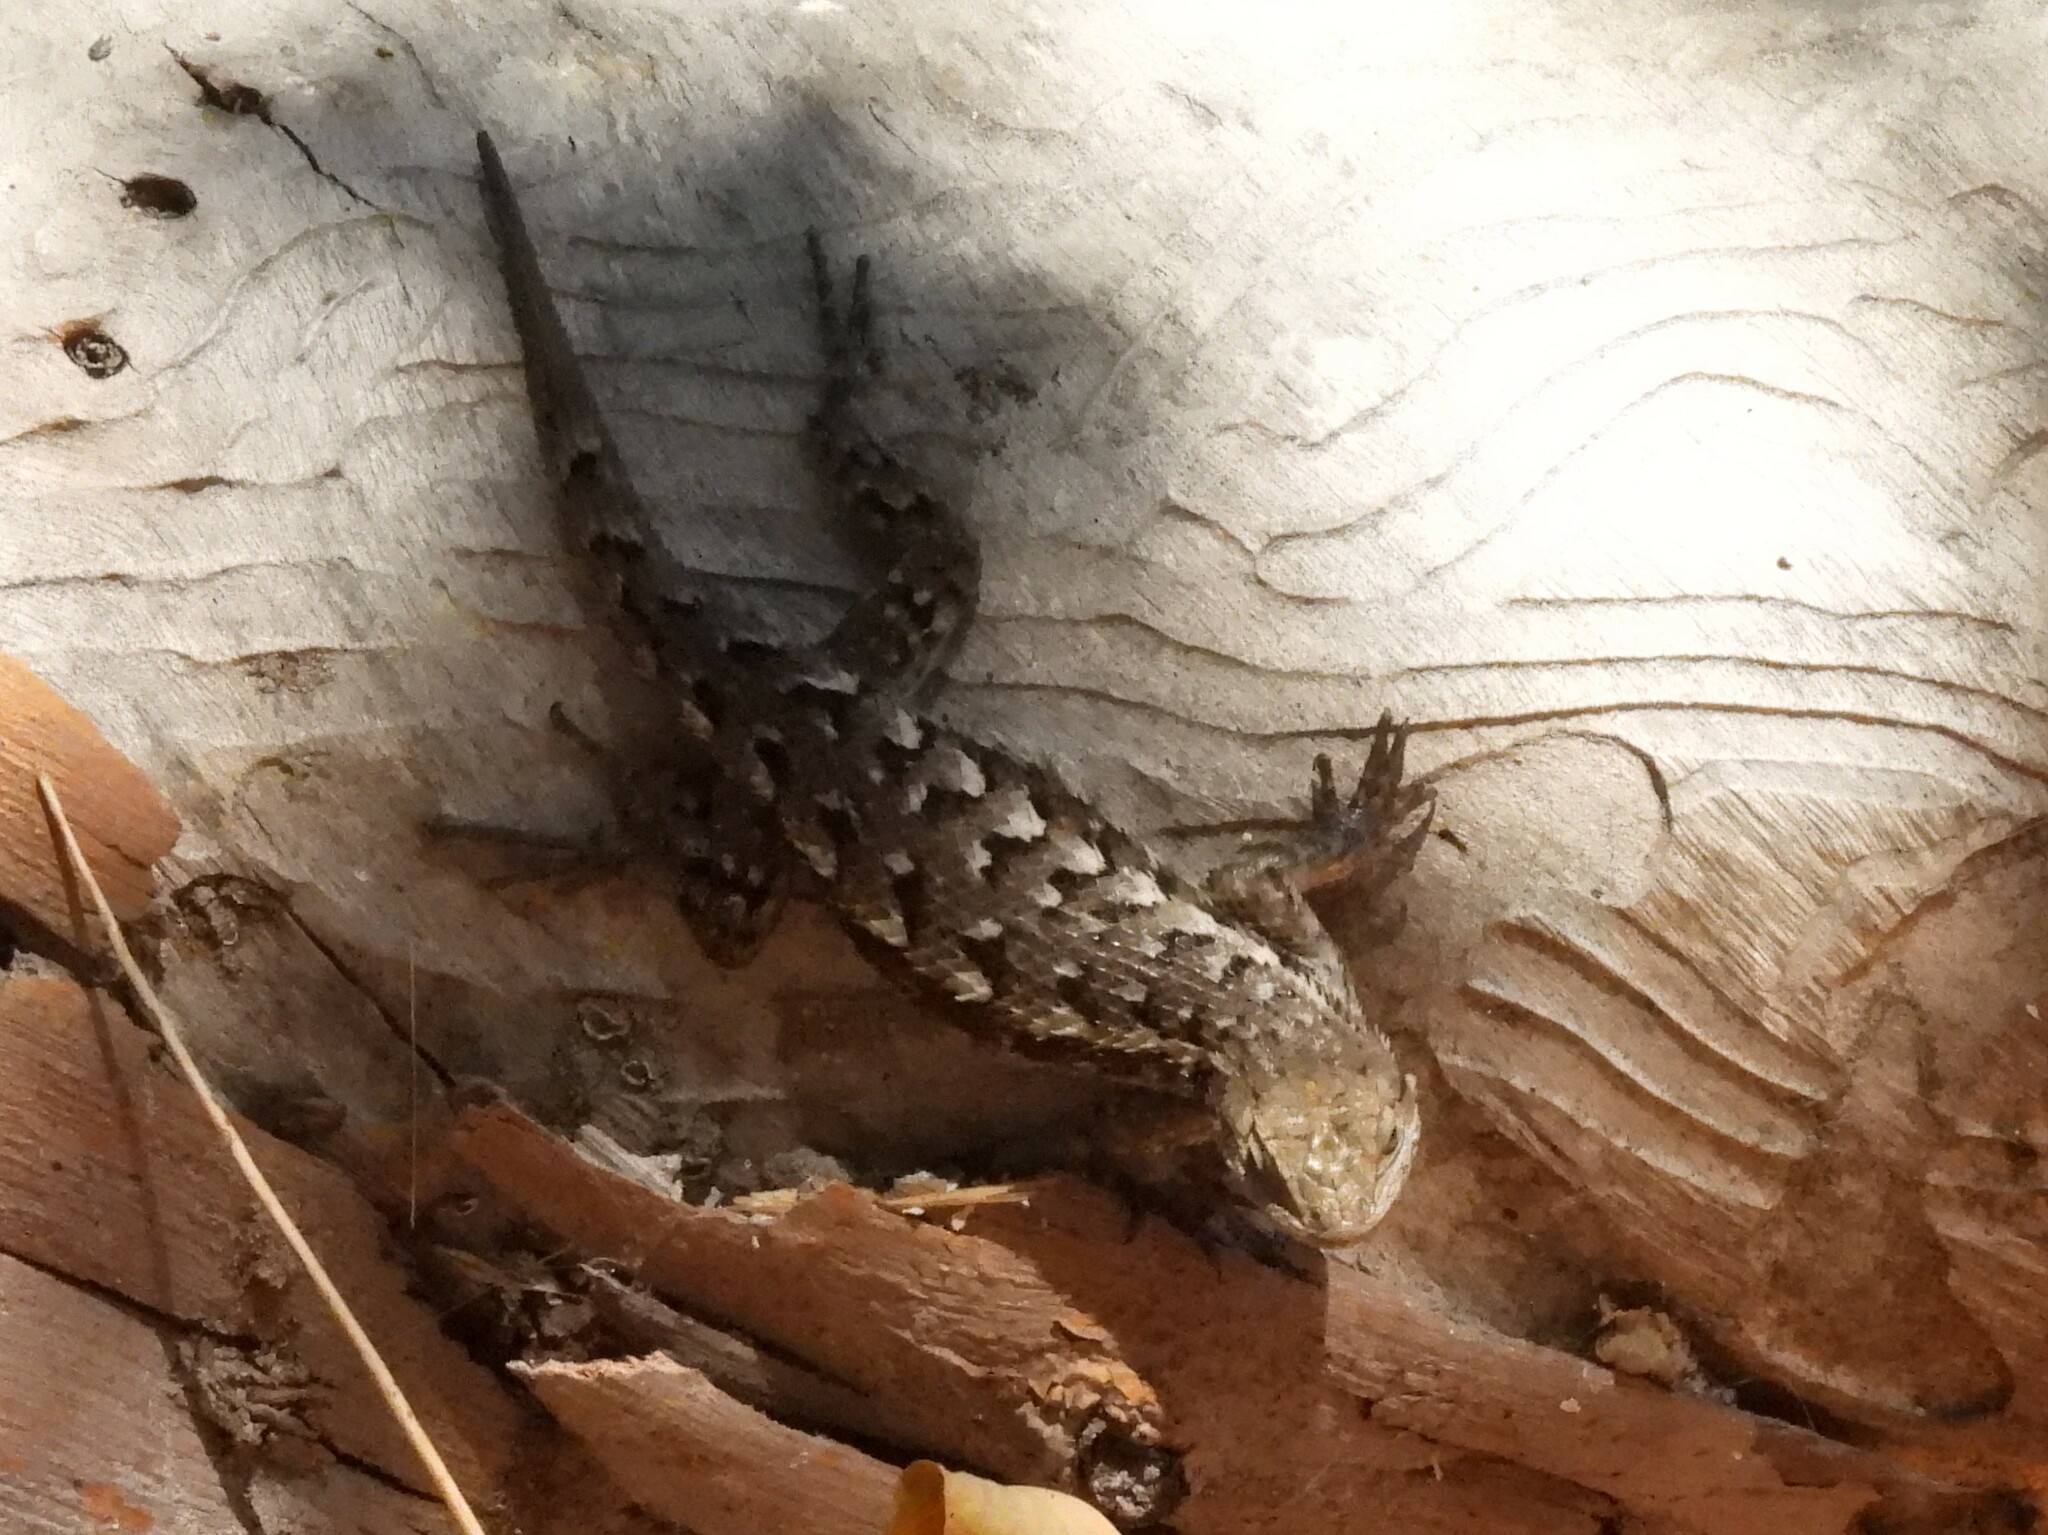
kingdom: Animalia
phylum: Chordata
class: Squamata
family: Phrynosomatidae
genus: Sceloporus
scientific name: Sceloporus occidentalis
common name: Western fence lizard
